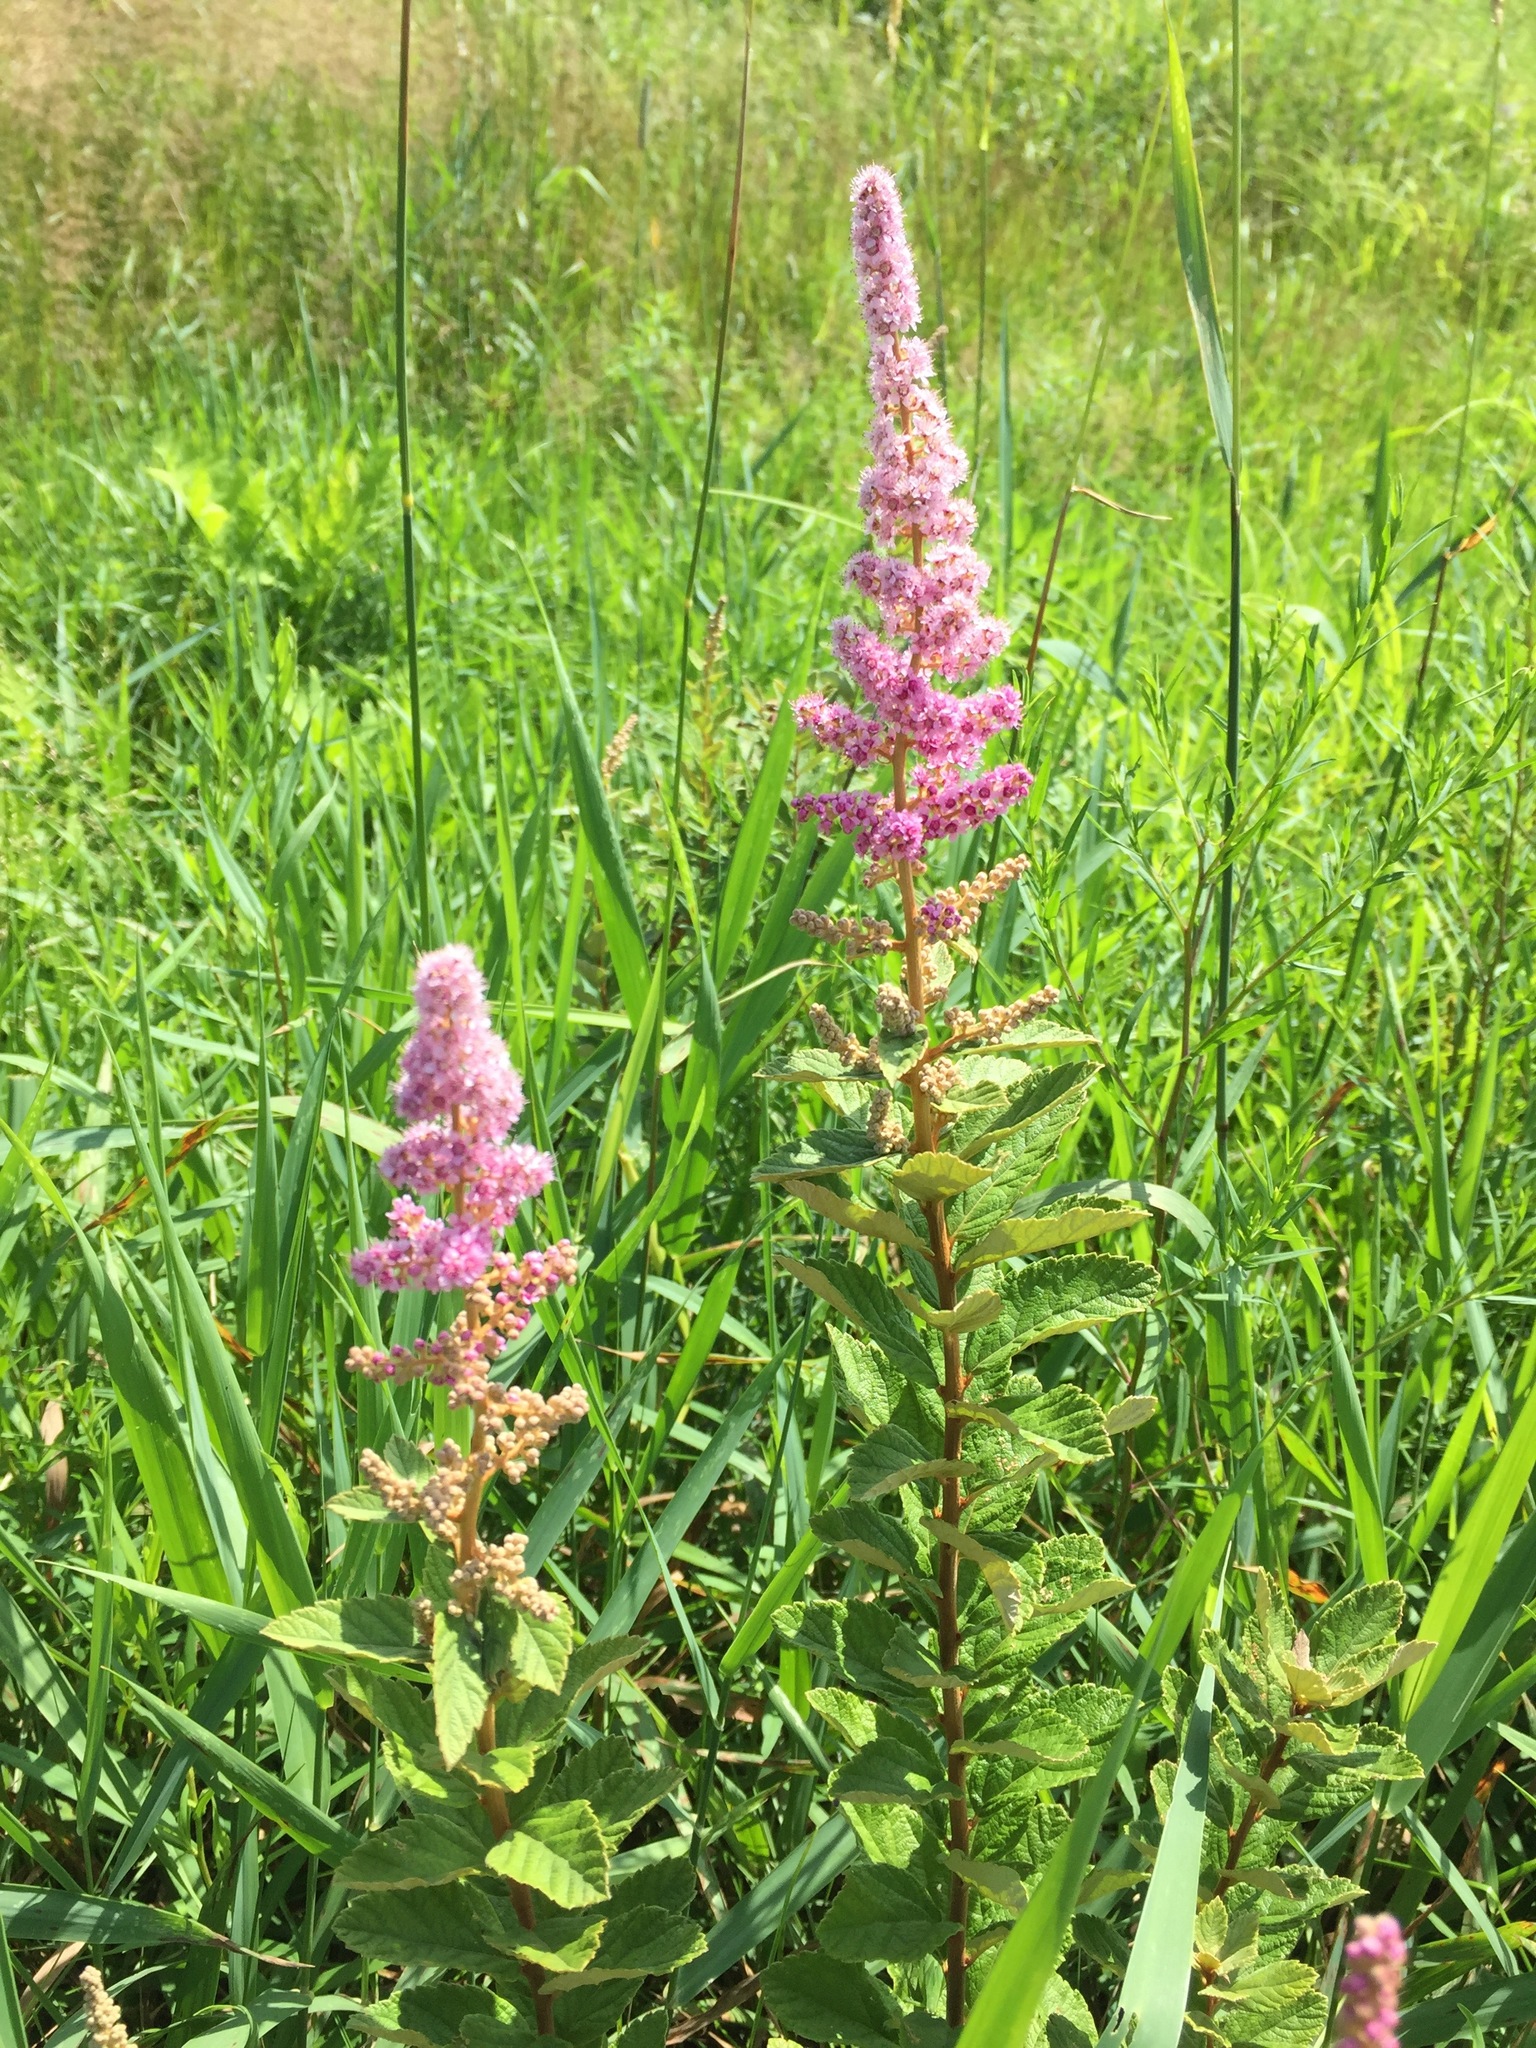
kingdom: Plantae
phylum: Tracheophyta
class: Magnoliopsida
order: Rosales
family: Rosaceae
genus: Spiraea
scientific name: Spiraea tomentosa
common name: Hardhack
